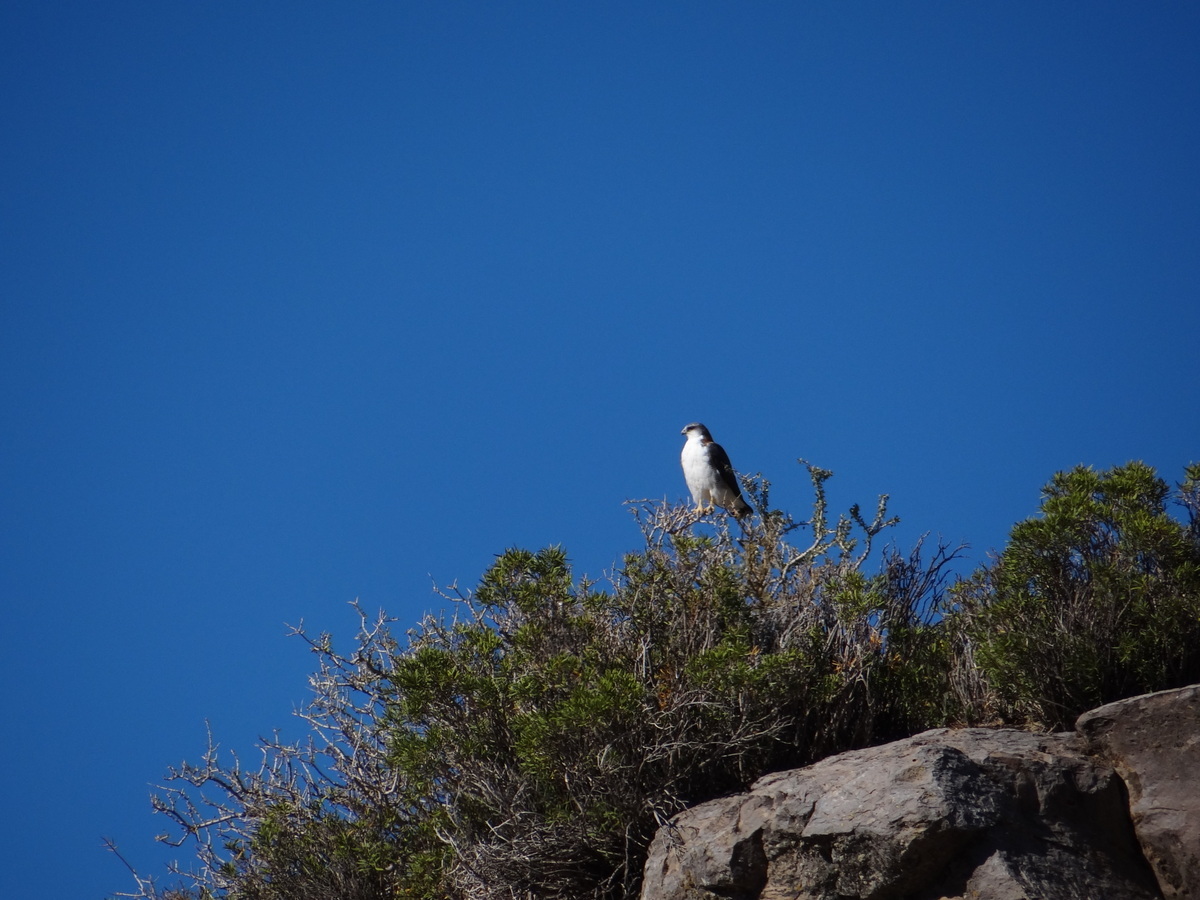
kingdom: Animalia
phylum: Chordata
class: Aves
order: Accipitriformes
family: Accipitridae
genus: Buteo
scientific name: Buteo polyosoma
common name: Variable hawk
